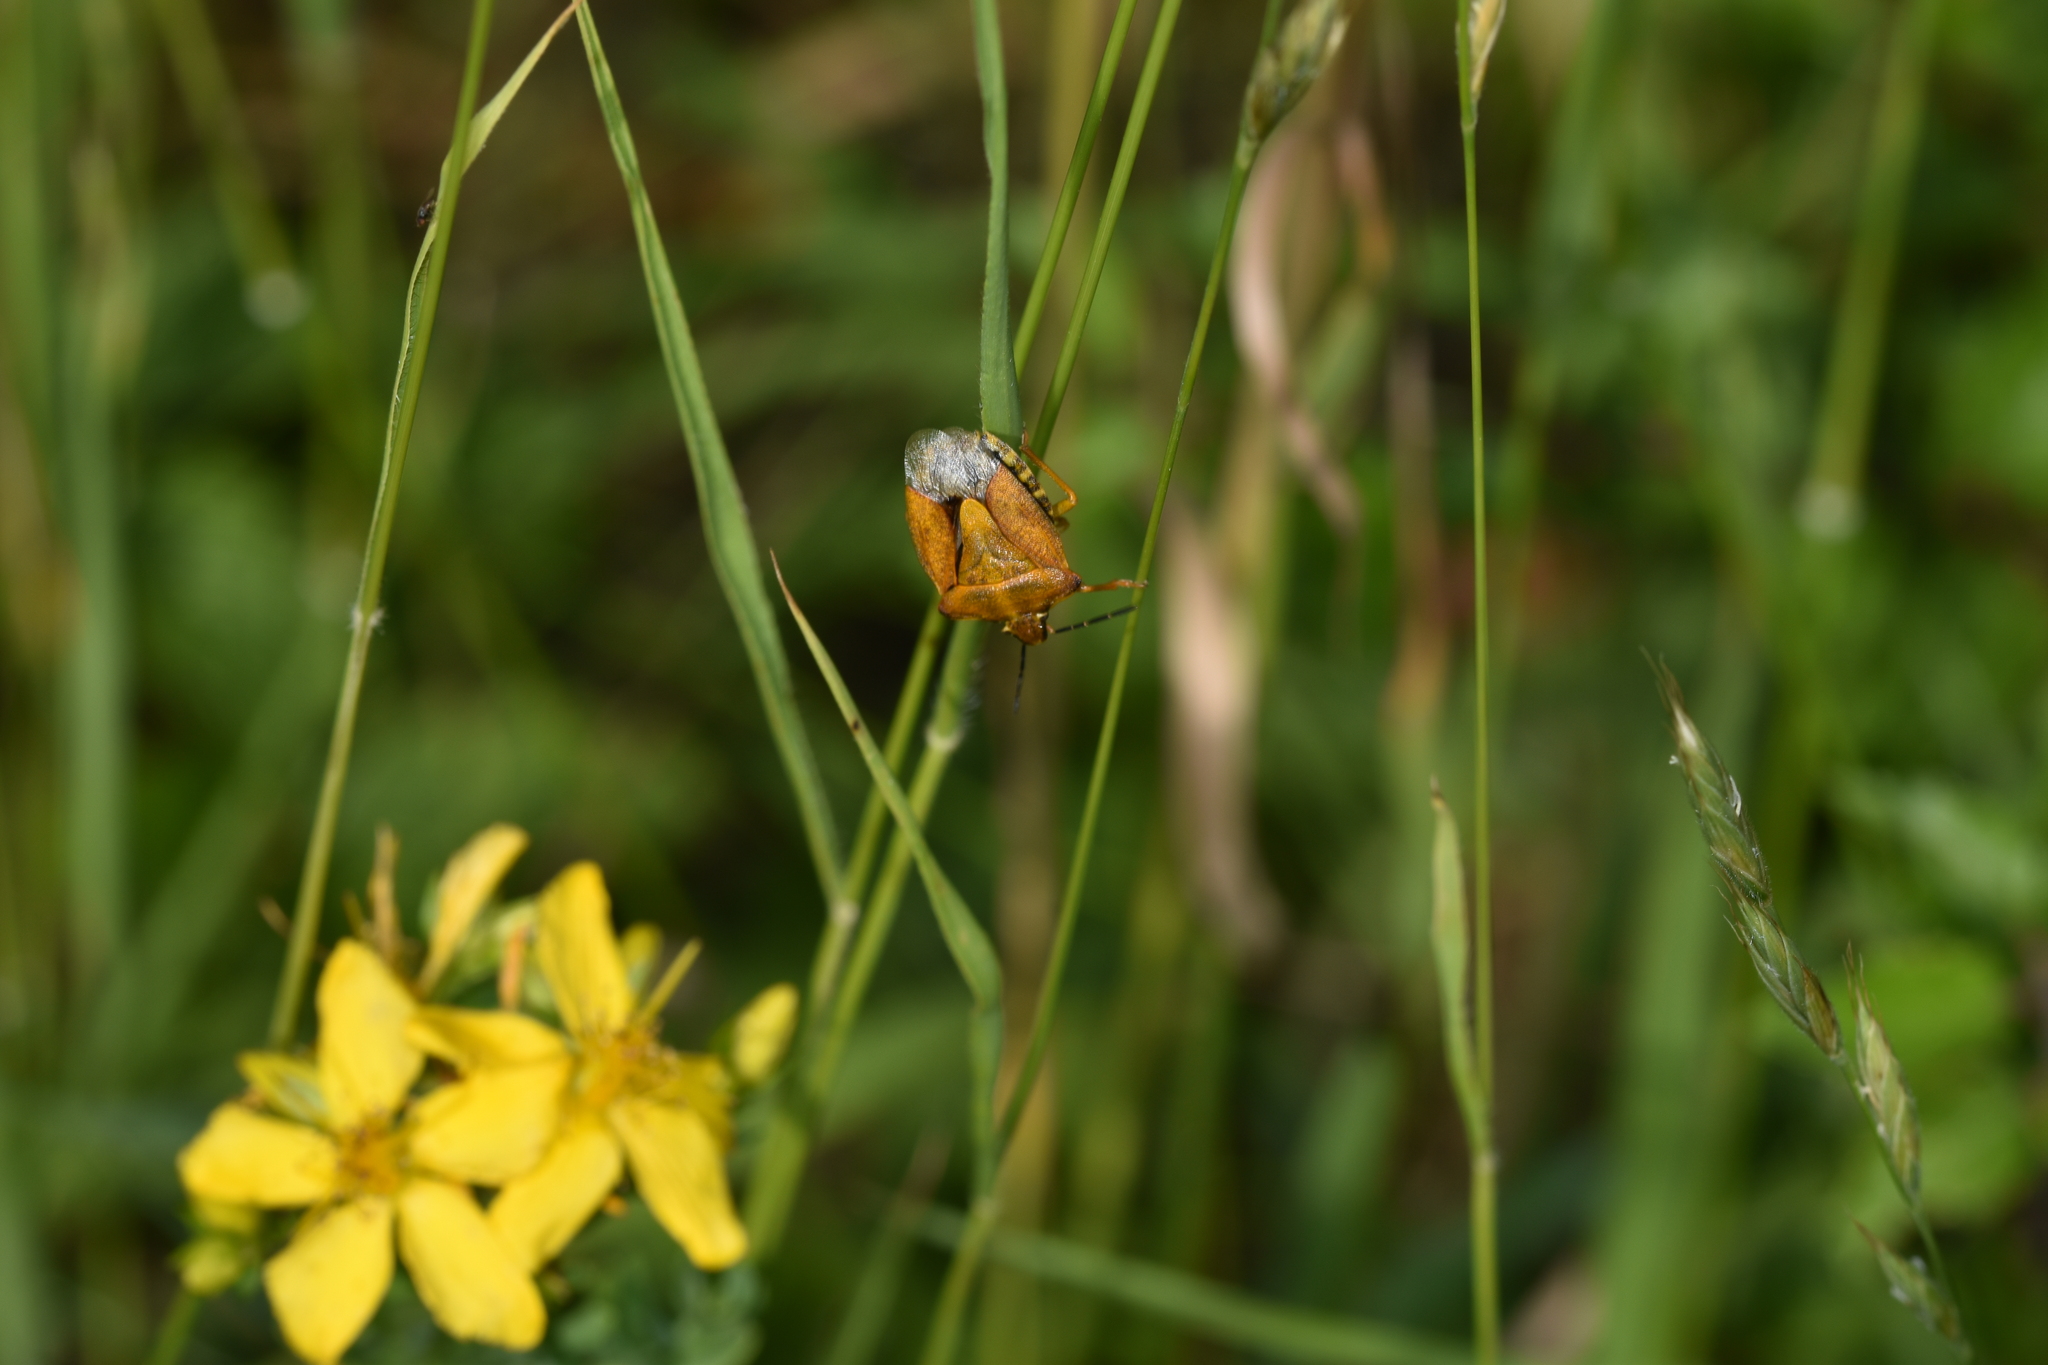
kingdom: Animalia
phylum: Arthropoda
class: Insecta
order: Hemiptera
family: Pentatomidae
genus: Carpocoris
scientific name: Carpocoris purpureipennis
